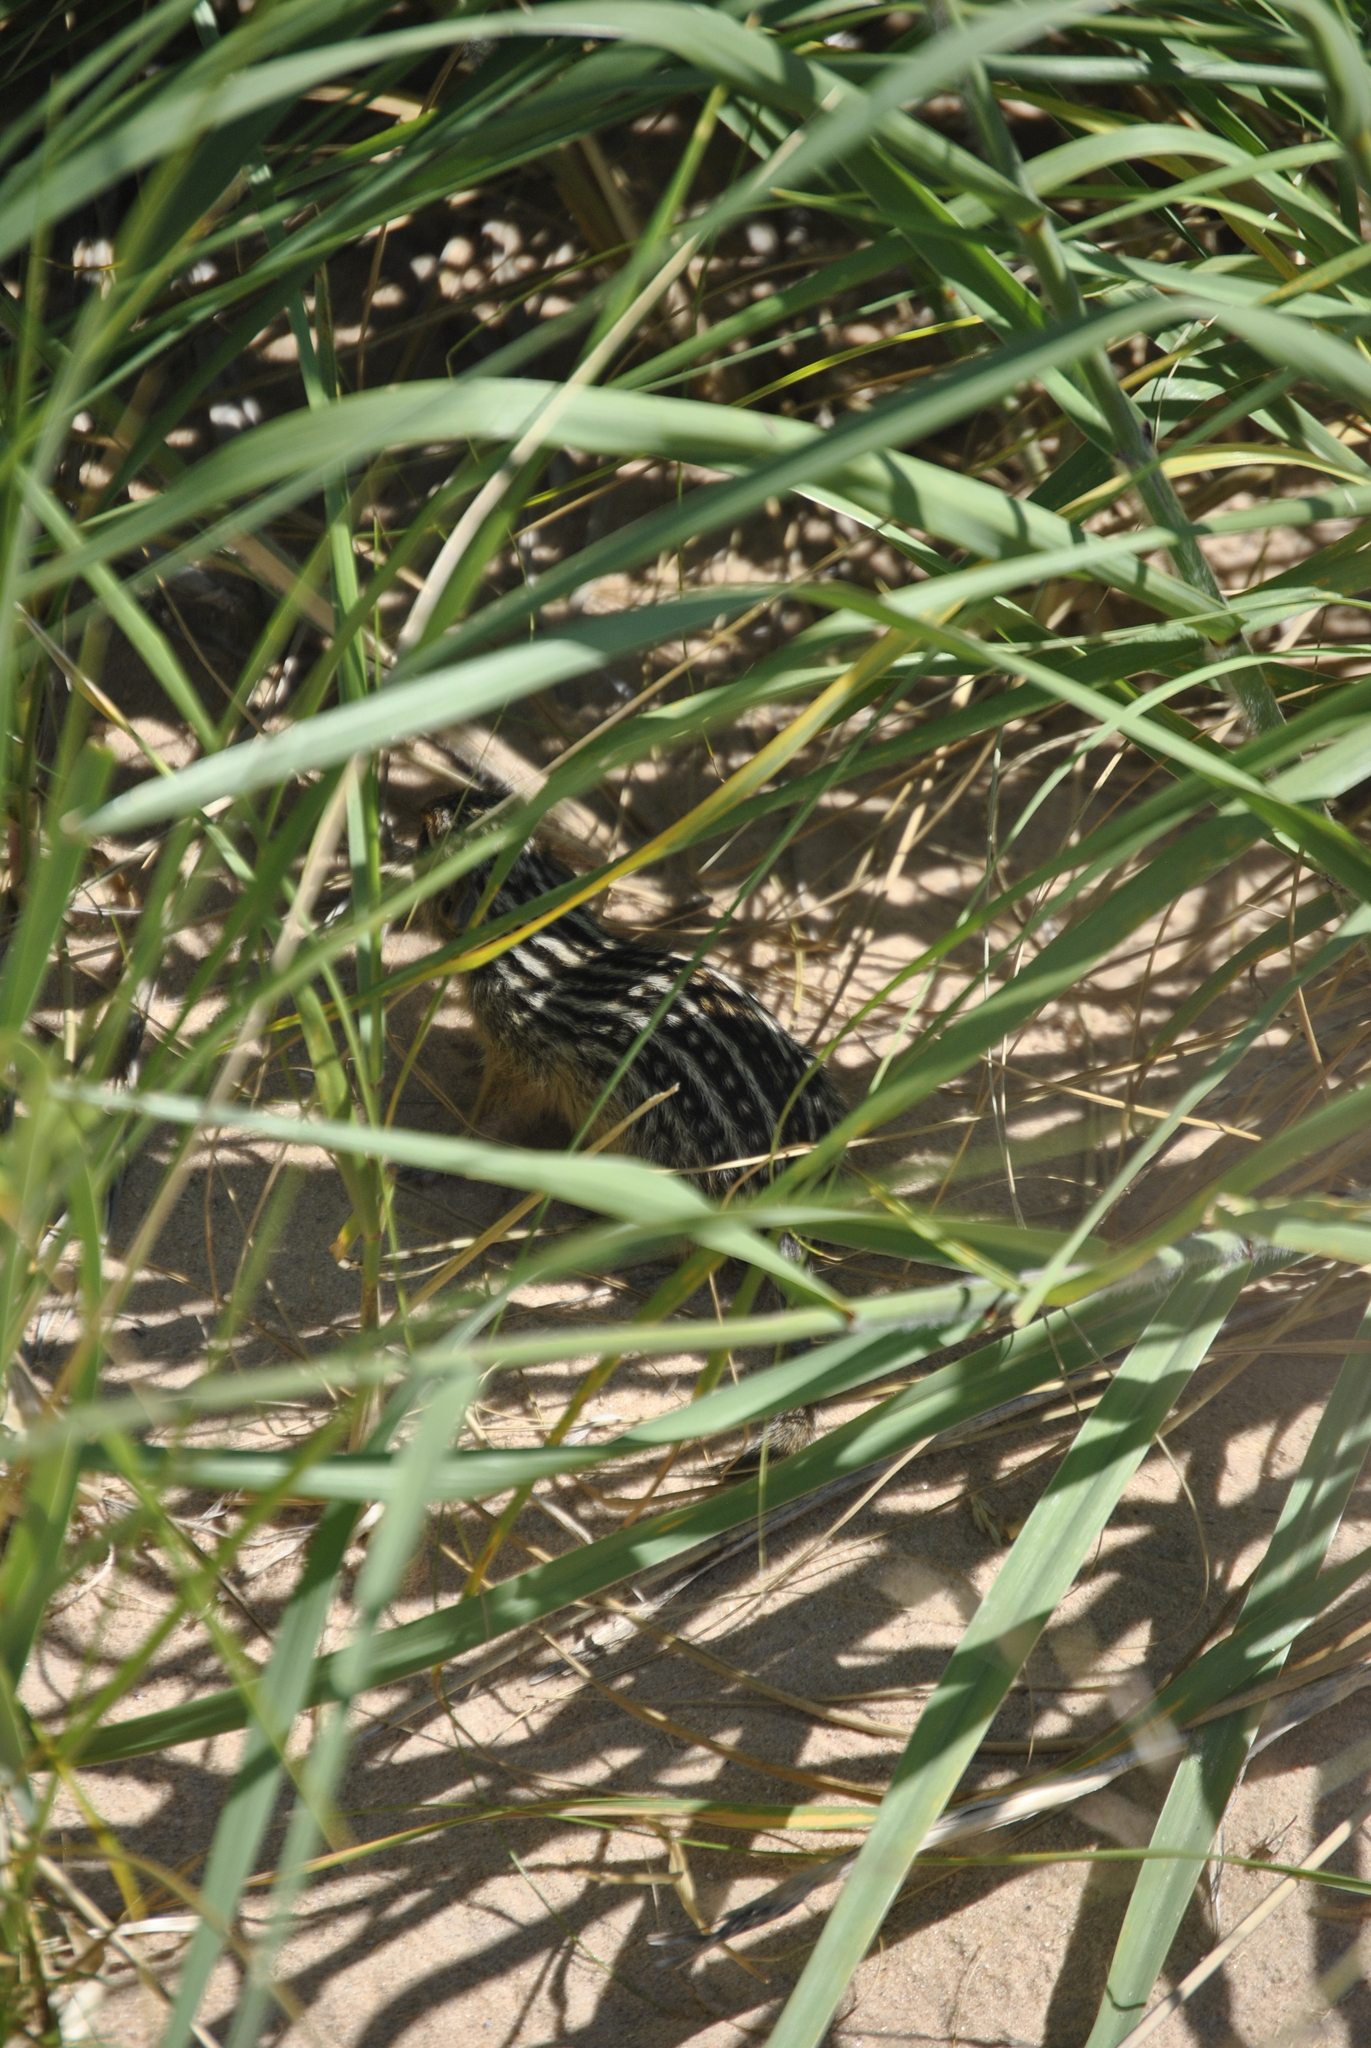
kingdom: Animalia
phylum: Chordata
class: Mammalia
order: Rodentia
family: Sciuridae
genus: Ictidomys
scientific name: Ictidomys tridecemlineatus
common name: Thirteen-lined ground squirrel
